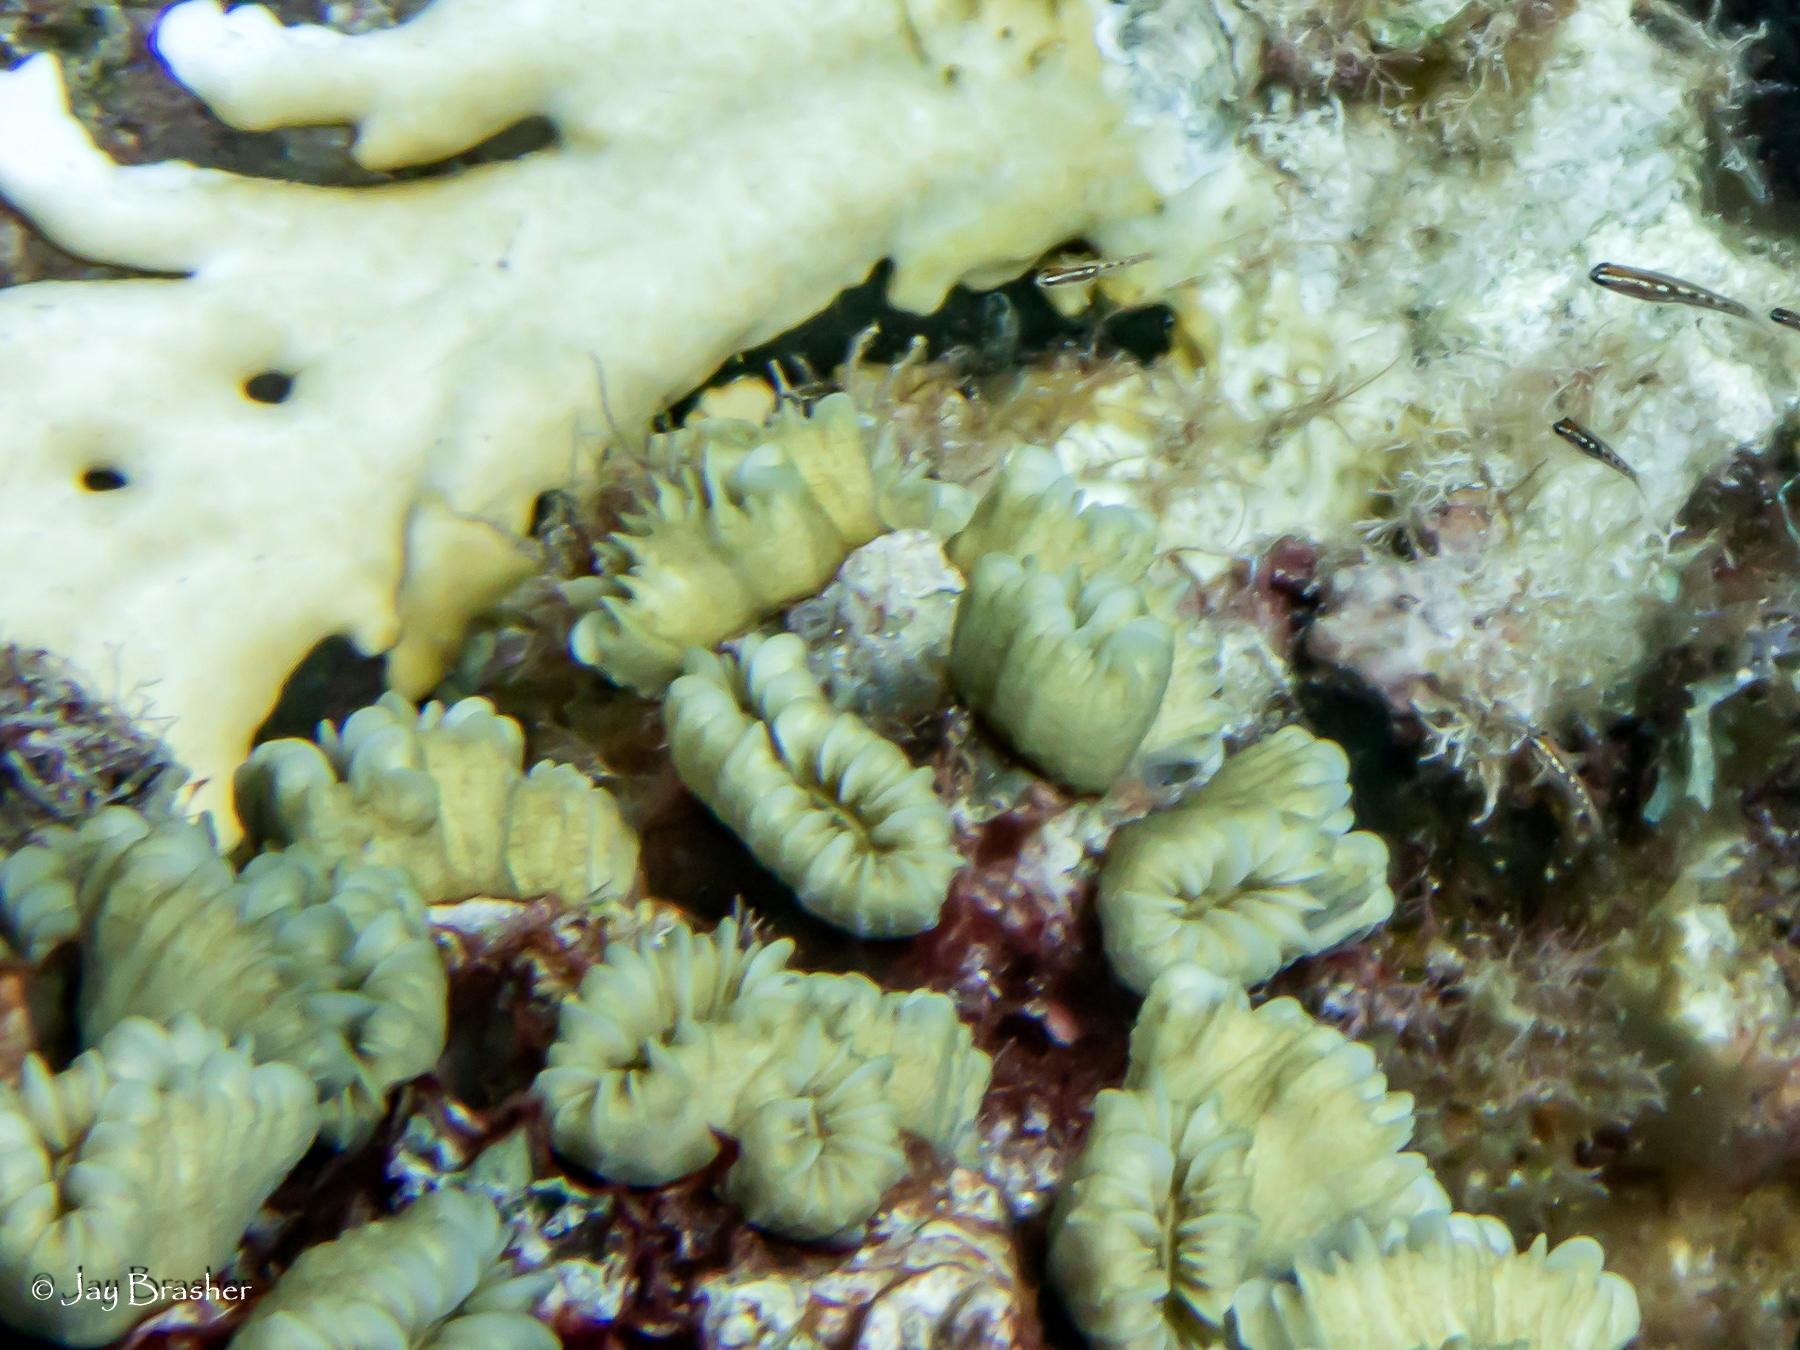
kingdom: Animalia
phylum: Cnidaria
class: Anthozoa
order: Scleractinia
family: Meandrinidae
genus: Eusmilia
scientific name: Eusmilia fastigiata
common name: Smooth flower coral
